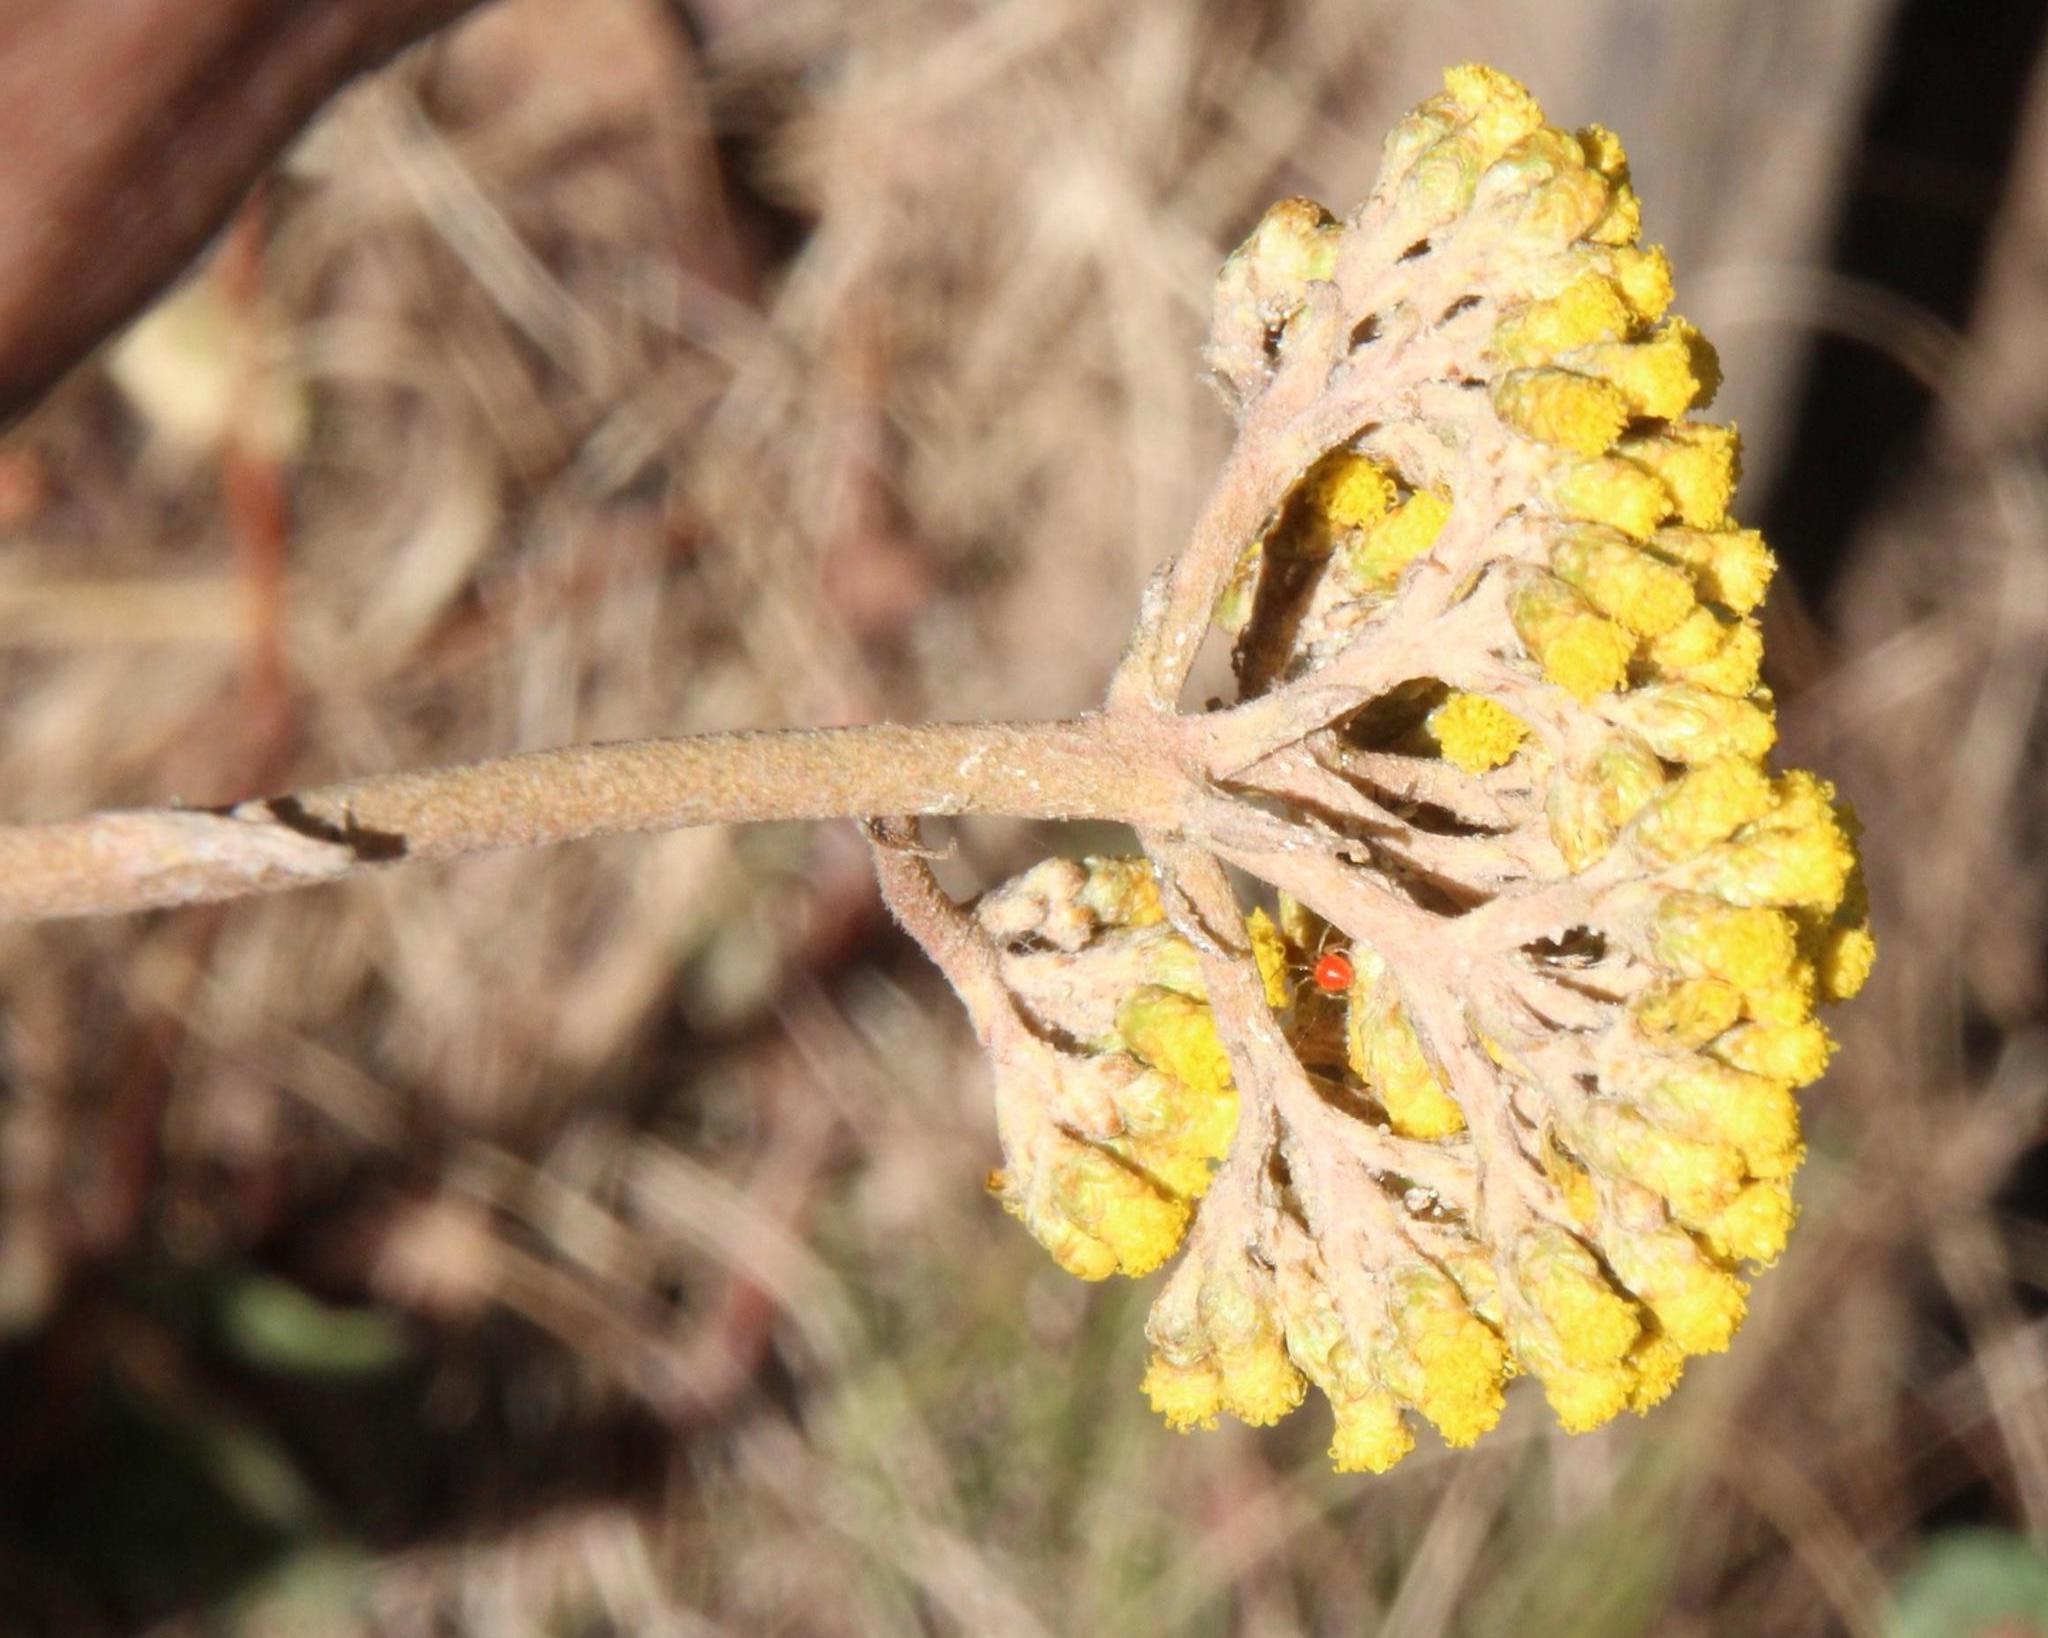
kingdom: Plantae
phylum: Tracheophyta
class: Magnoliopsida
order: Asterales
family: Asteraceae
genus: Helichrysum
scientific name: Helichrysum nudifolium
